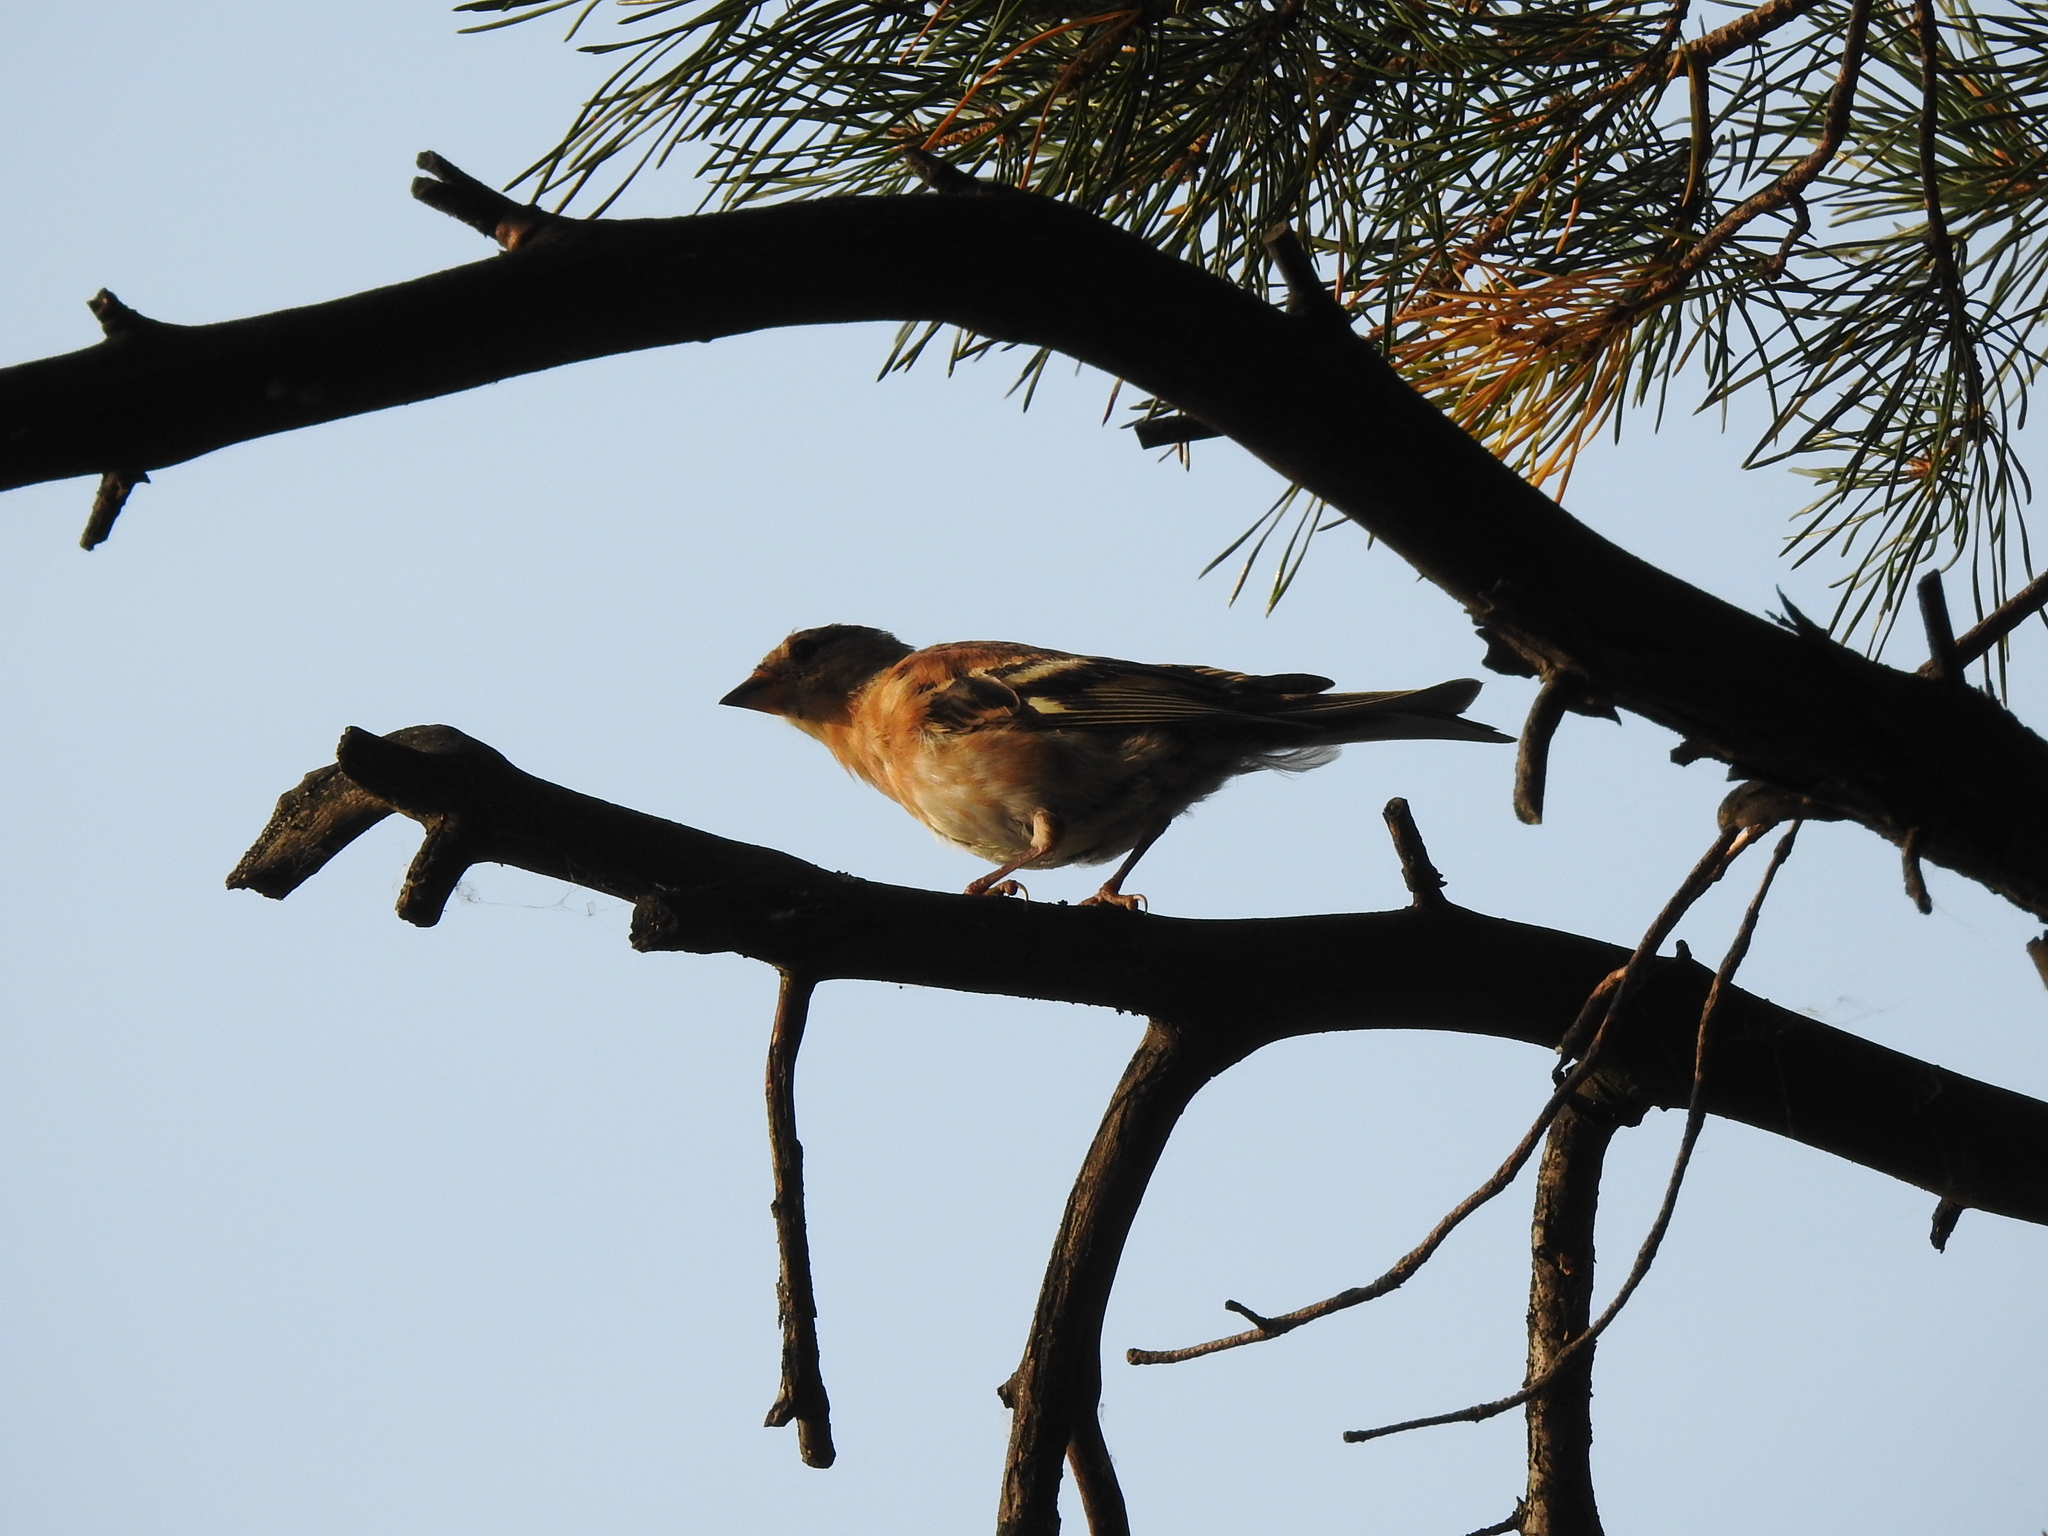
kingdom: Animalia
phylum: Chordata
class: Aves
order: Passeriformes
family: Fringillidae
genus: Fringilla
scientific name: Fringilla montifringilla
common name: Brambling
